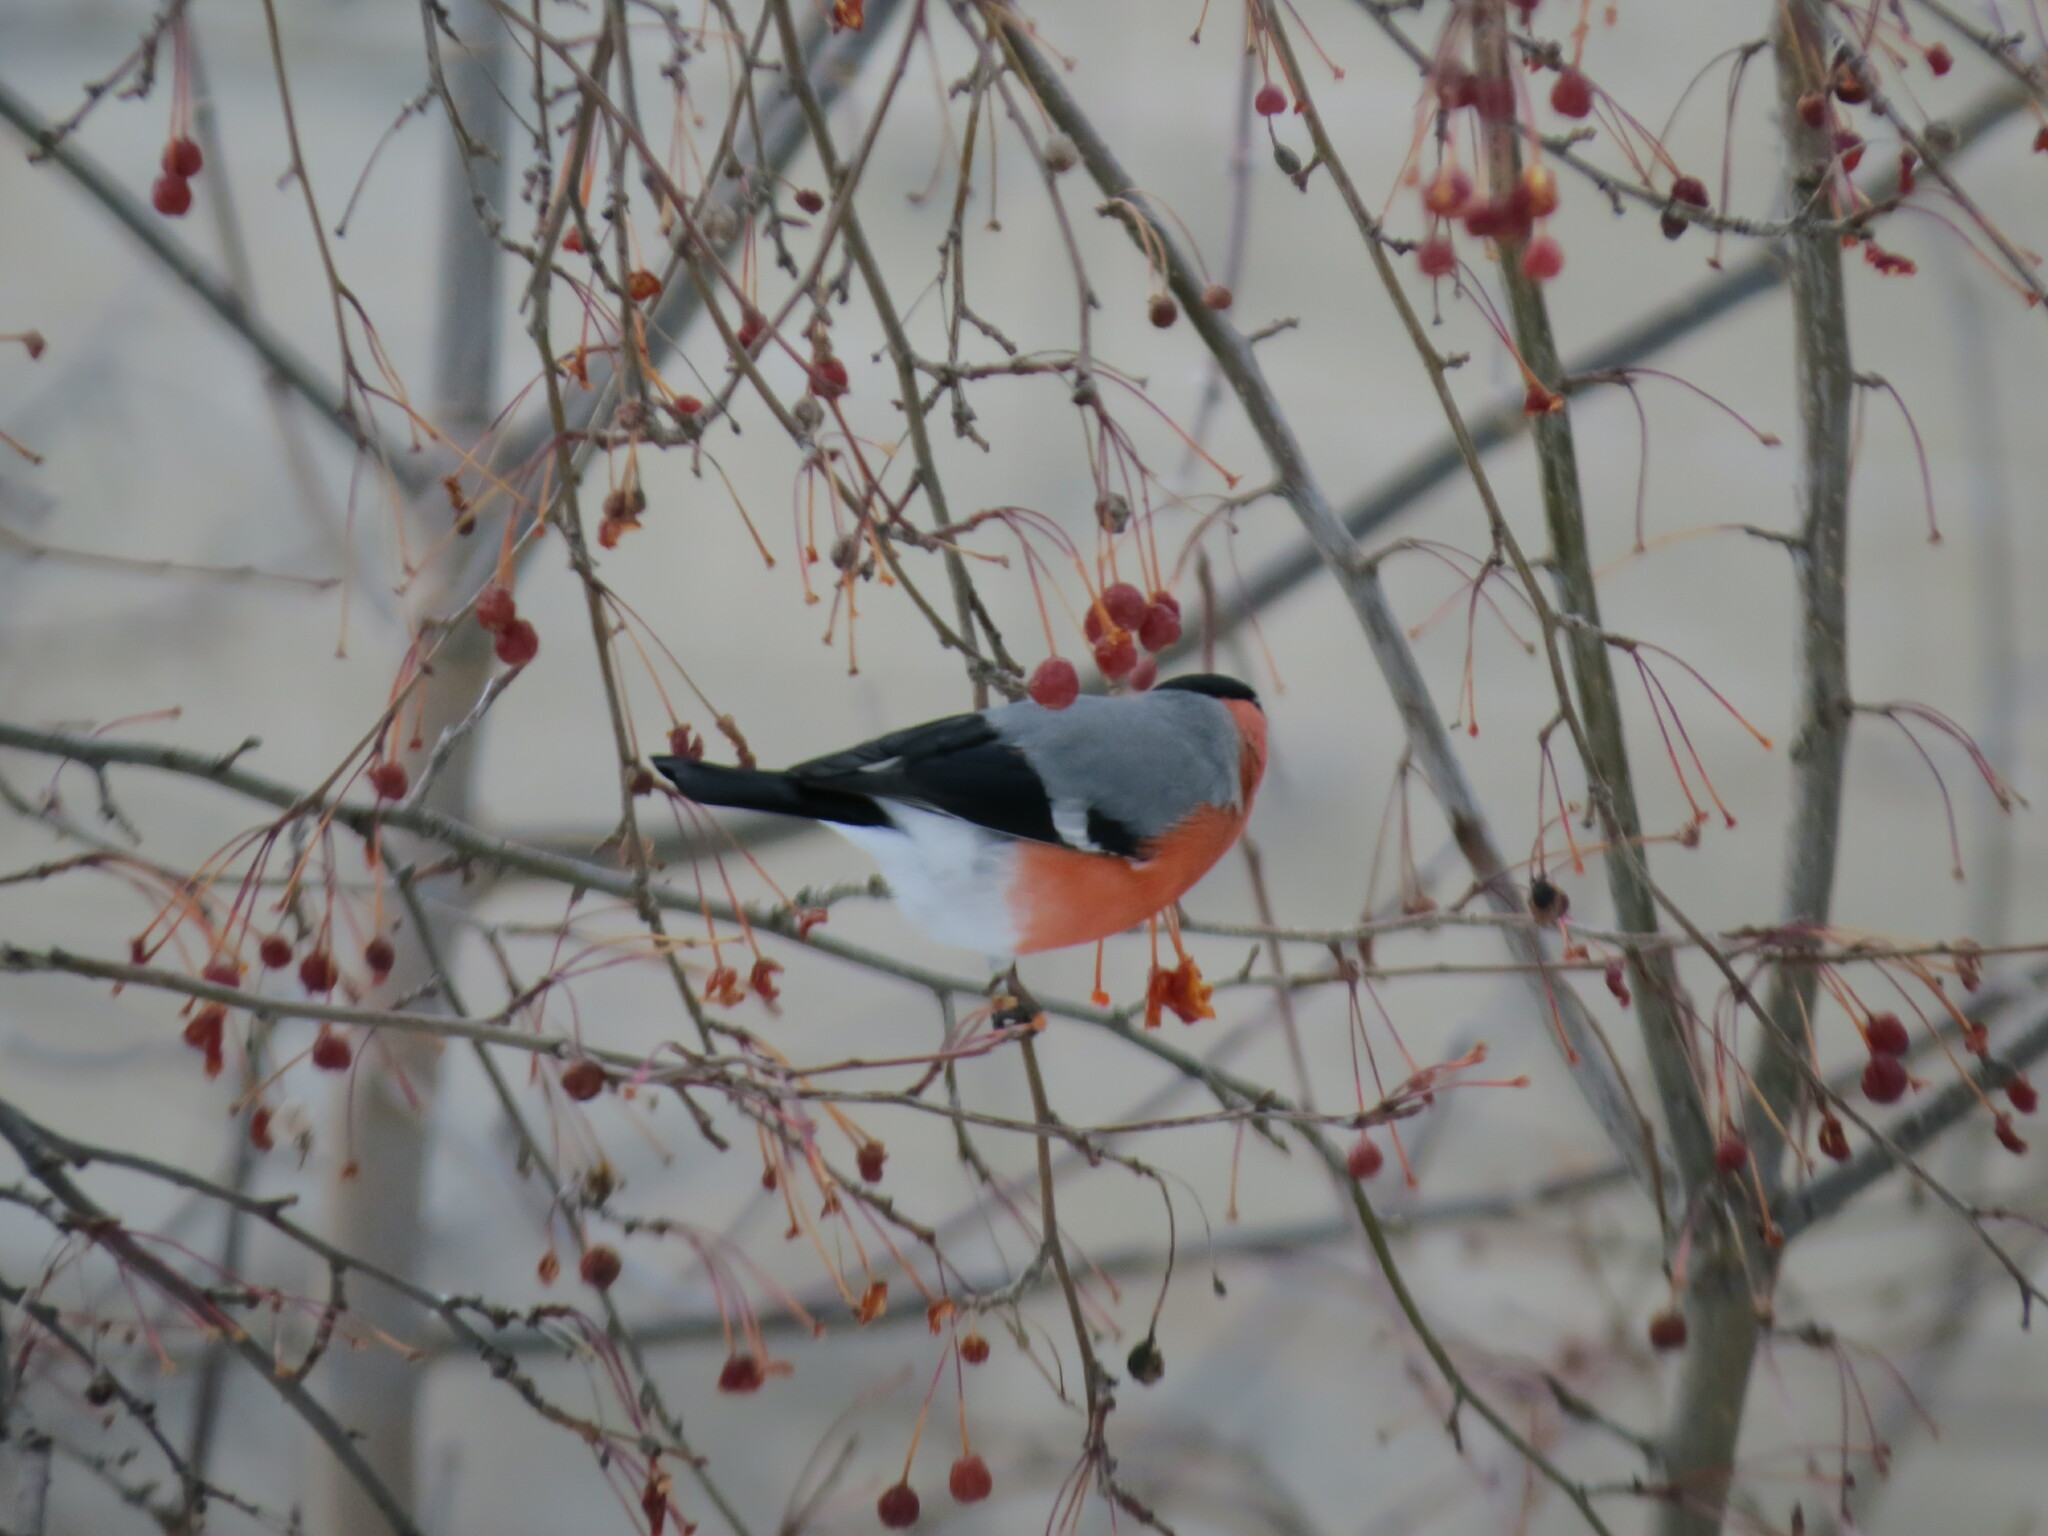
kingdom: Animalia
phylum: Chordata
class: Aves
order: Passeriformes
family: Fringillidae
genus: Pyrrhula
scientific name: Pyrrhula pyrrhula
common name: Eurasian bullfinch
